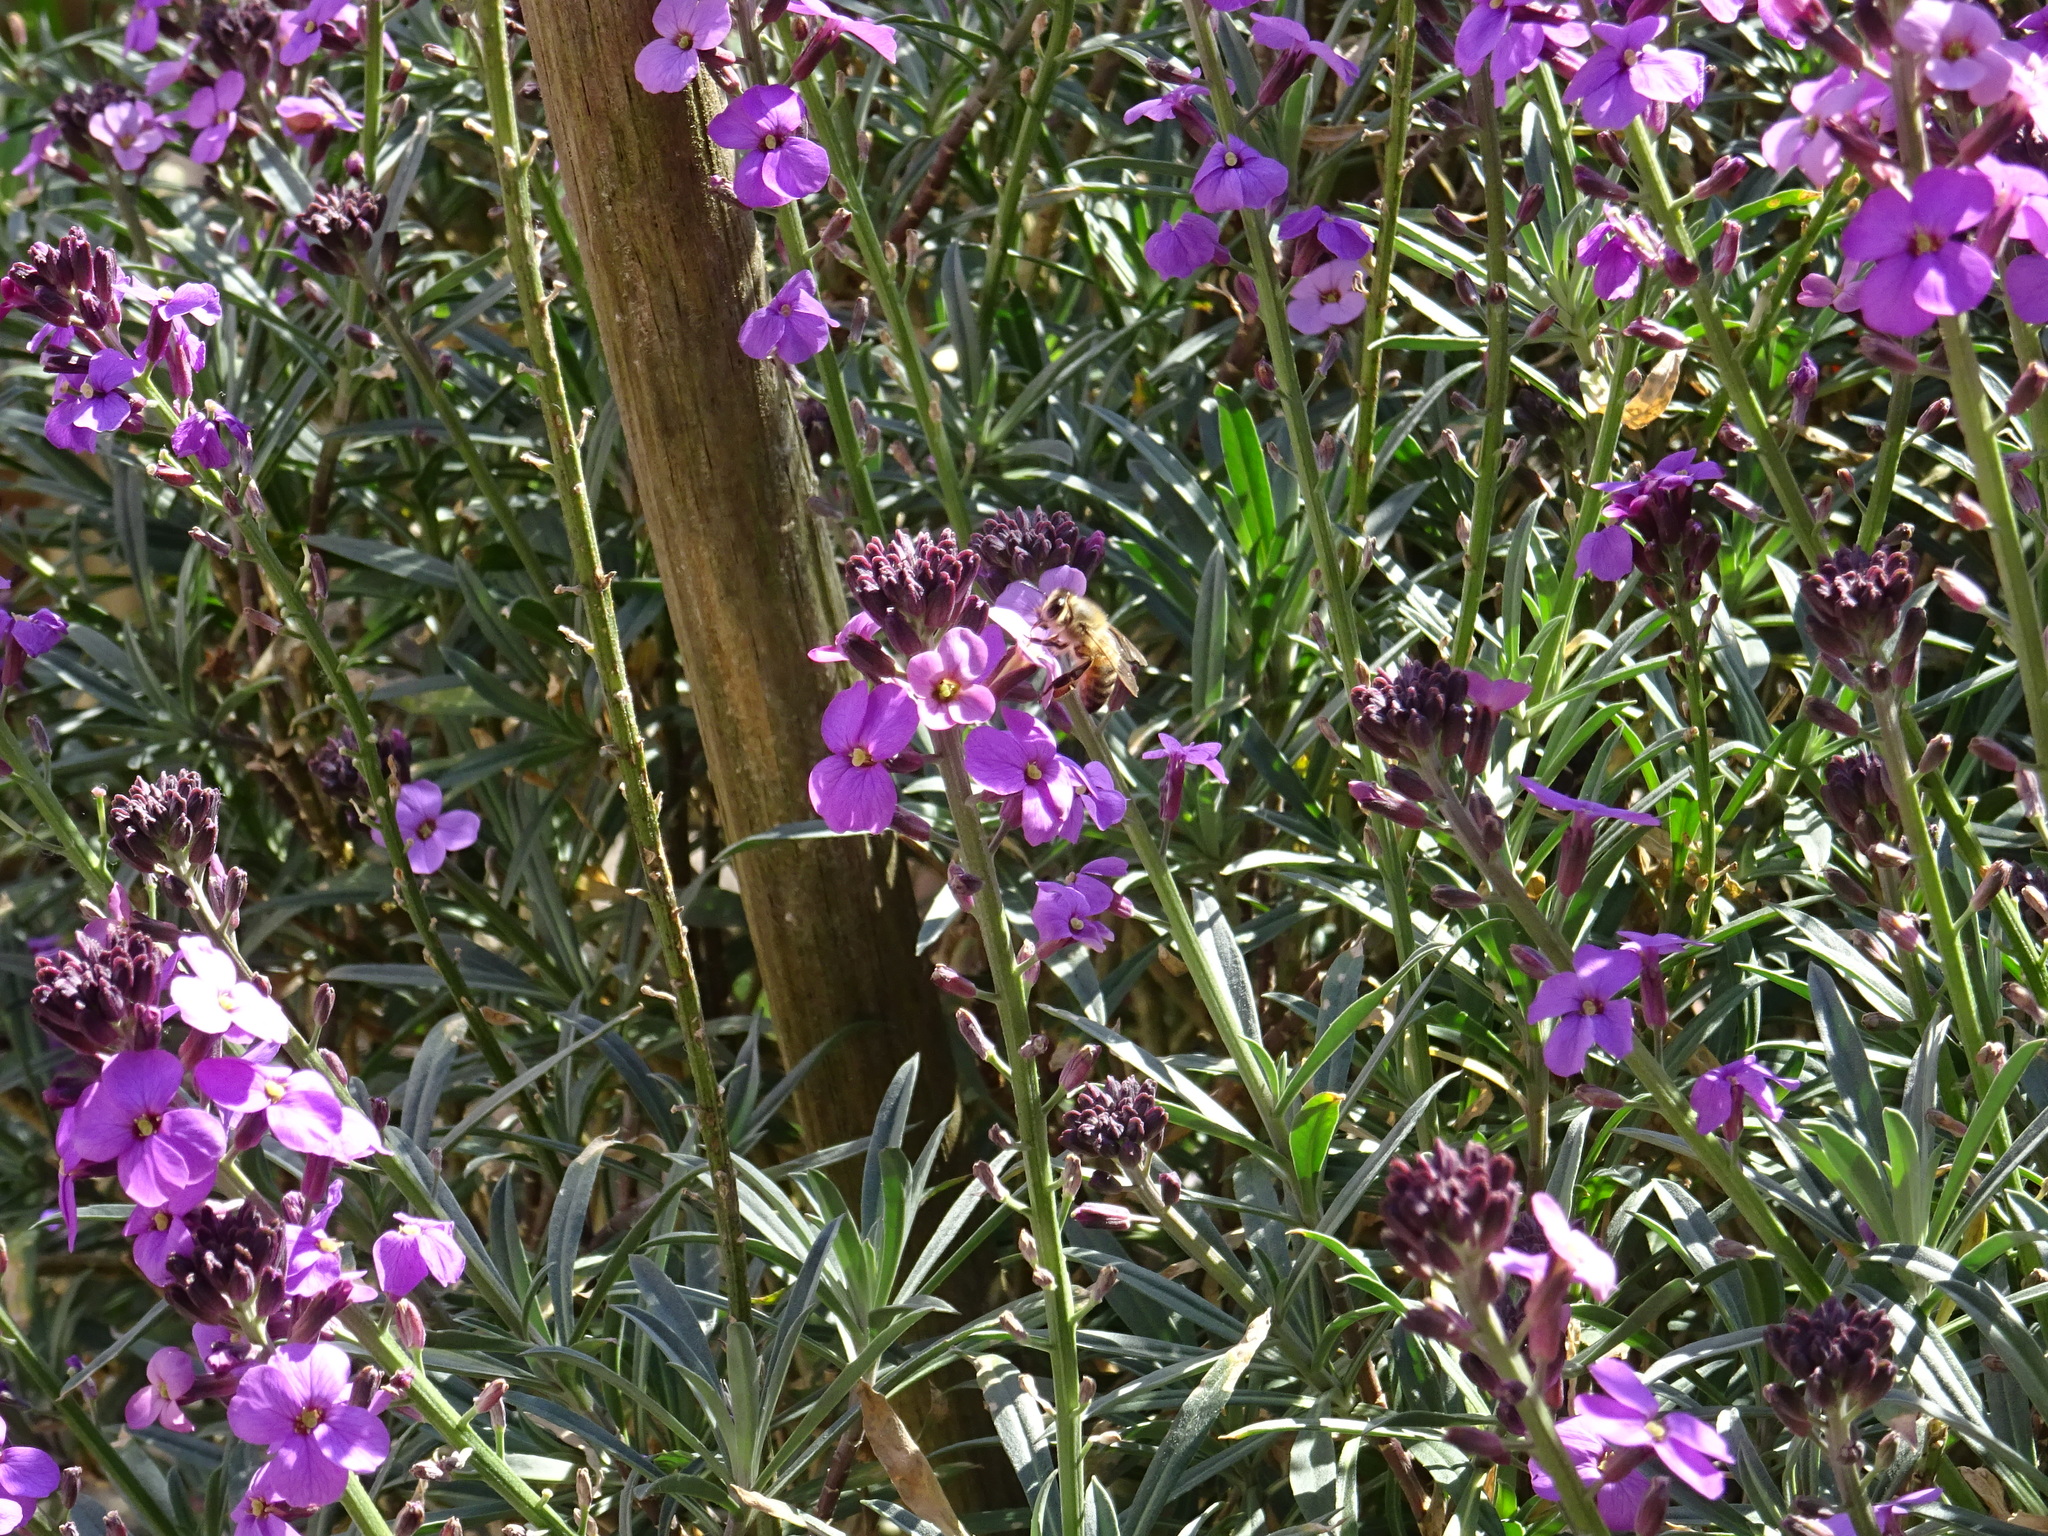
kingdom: Animalia
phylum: Arthropoda
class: Insecta
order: Hymenoptera
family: Apidae
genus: Apis
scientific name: Apis mellifera
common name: Honey bee
